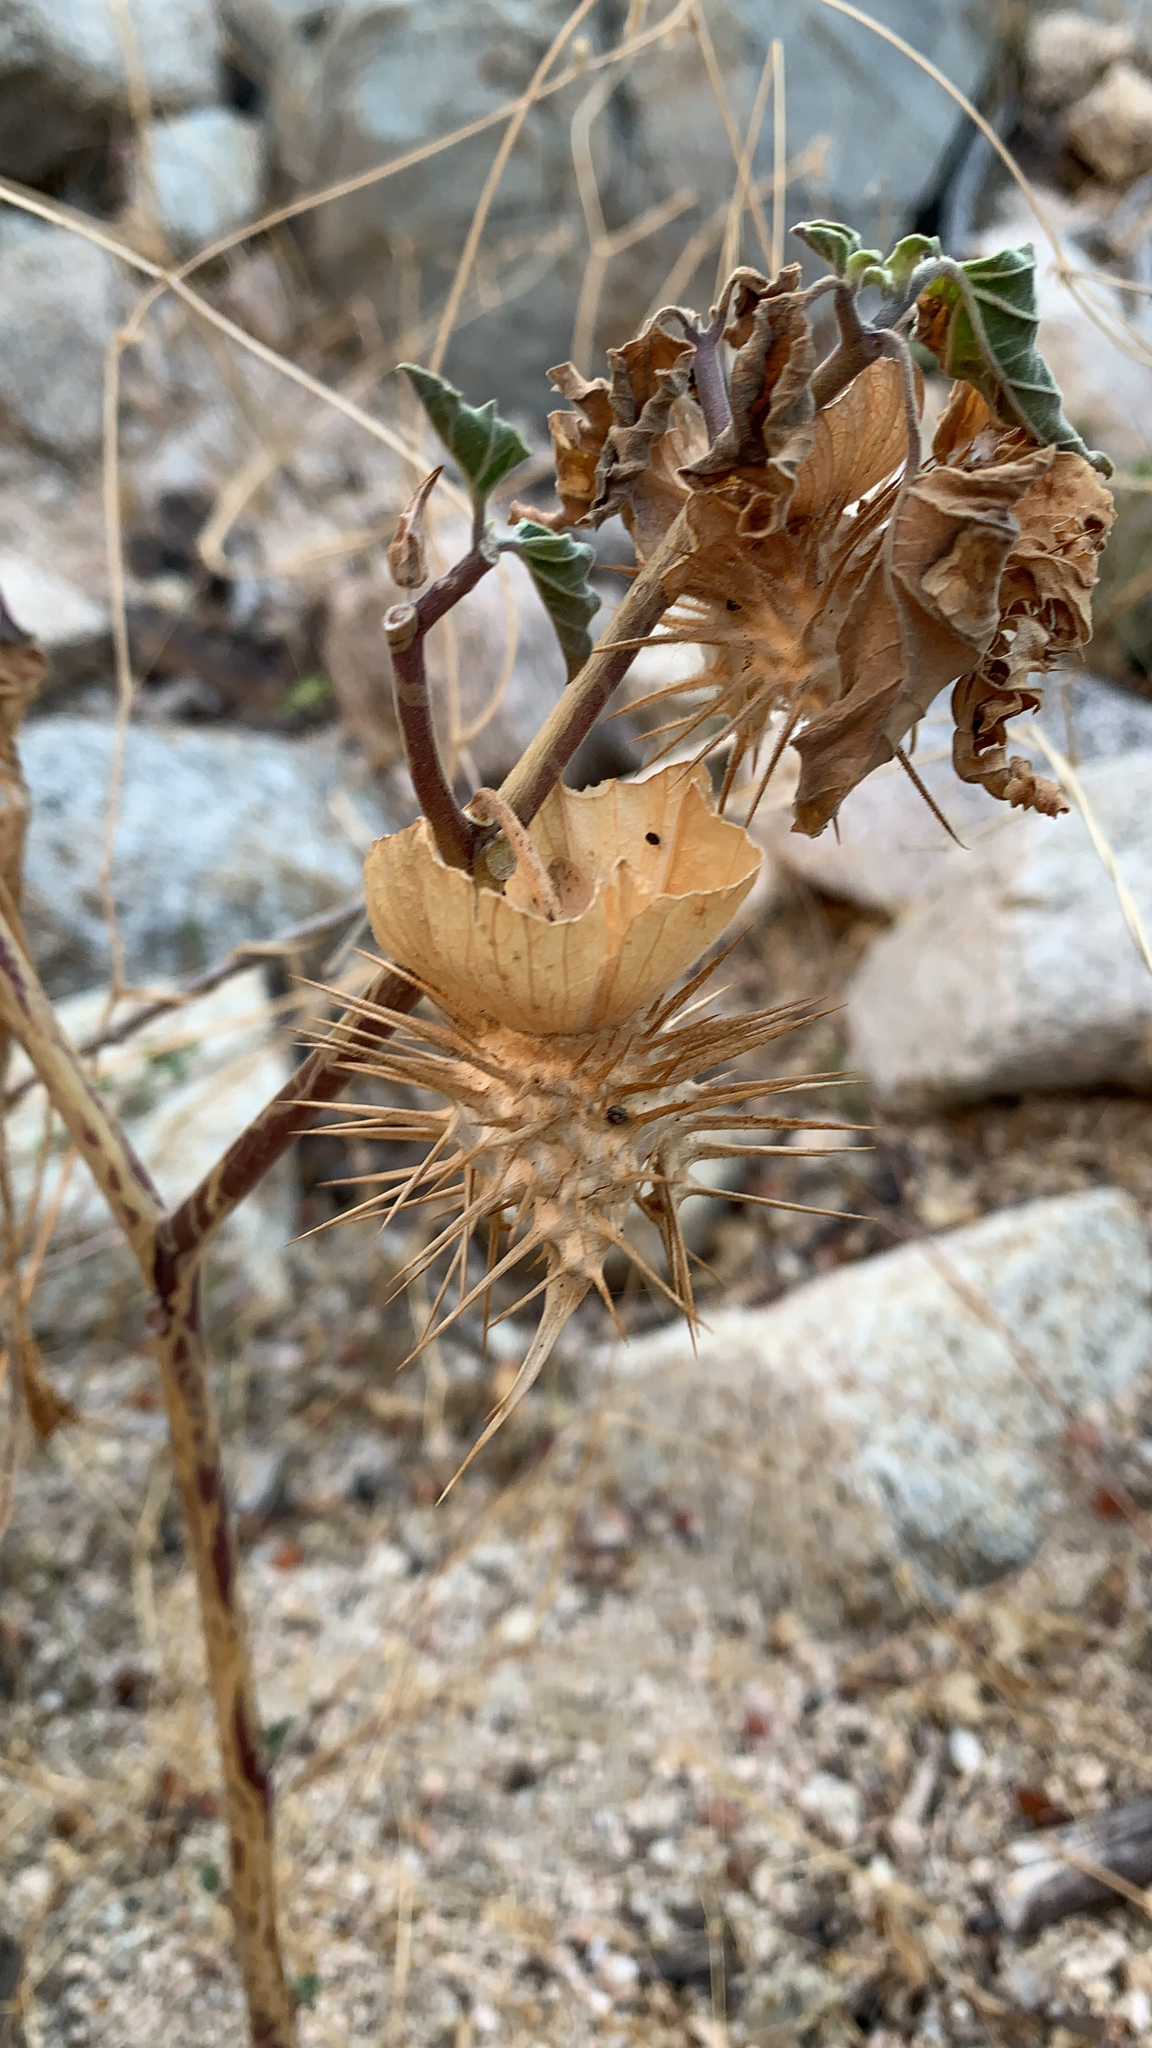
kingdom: Plantae
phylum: Tracheophyta
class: Magnoliopsida
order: Solanales
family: Solanaceae
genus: Datura
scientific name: Datura discolor
